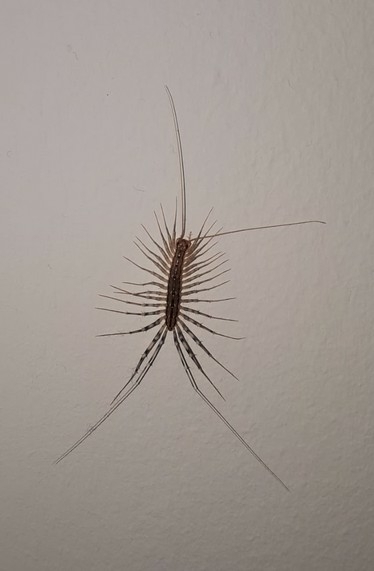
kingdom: Animalia
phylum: Arthropoda
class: Chilopoda
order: Scutigeromorpha
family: Scutigeridae
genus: Scutigera
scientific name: Scutigera coleoptrata
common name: House centipede
